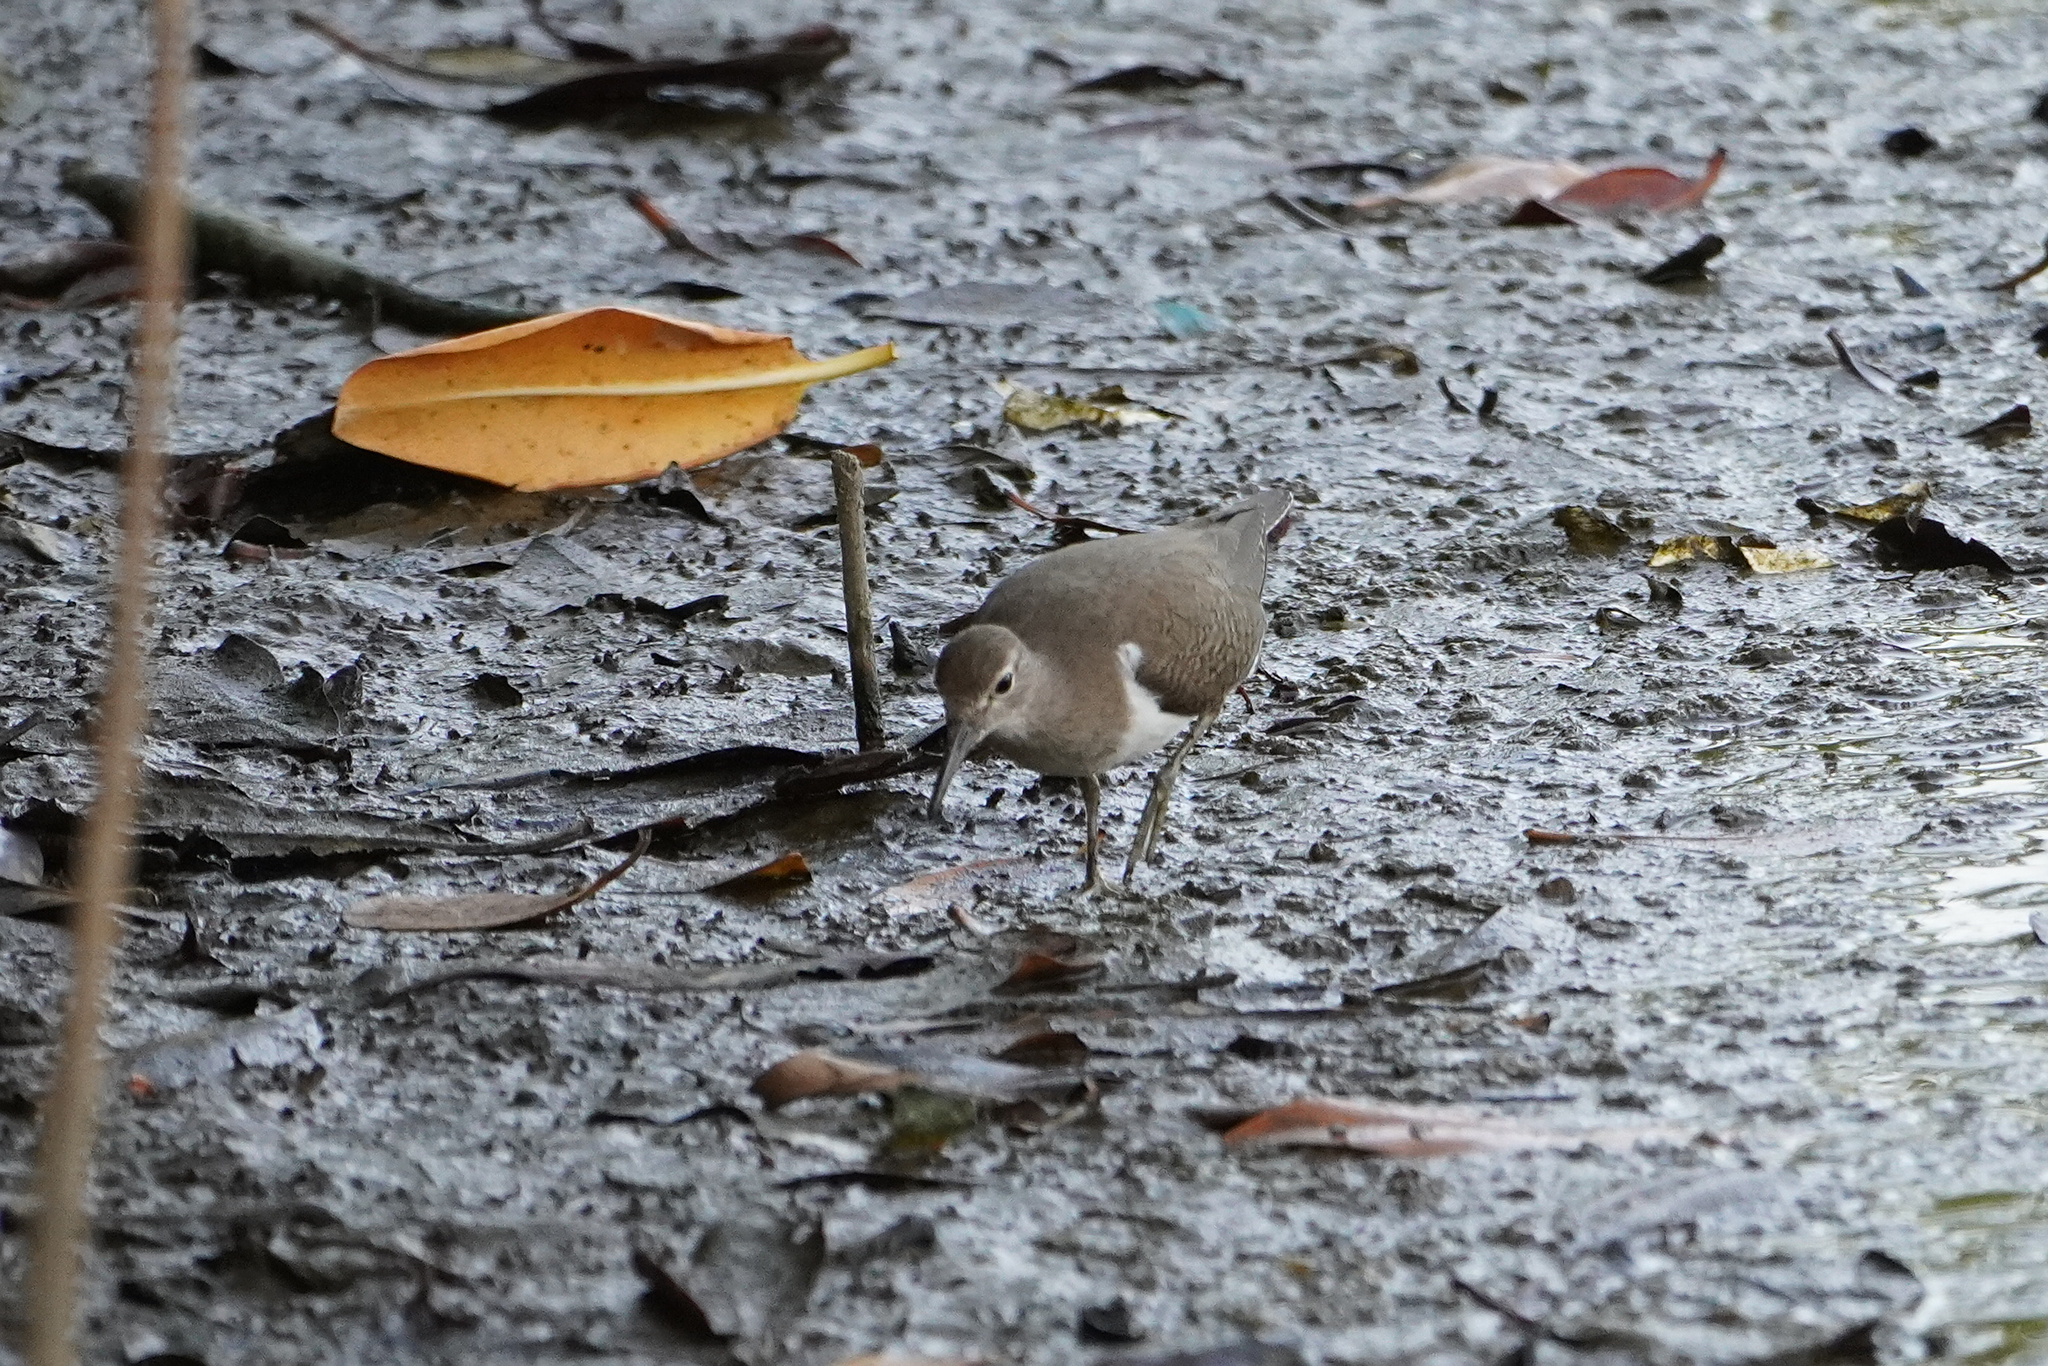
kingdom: Animalia
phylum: Chordata
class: Aves
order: Charadriiformes
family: Scolopacidae
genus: Actitis
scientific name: Actitis hypoleucos
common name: Common sandpiper
